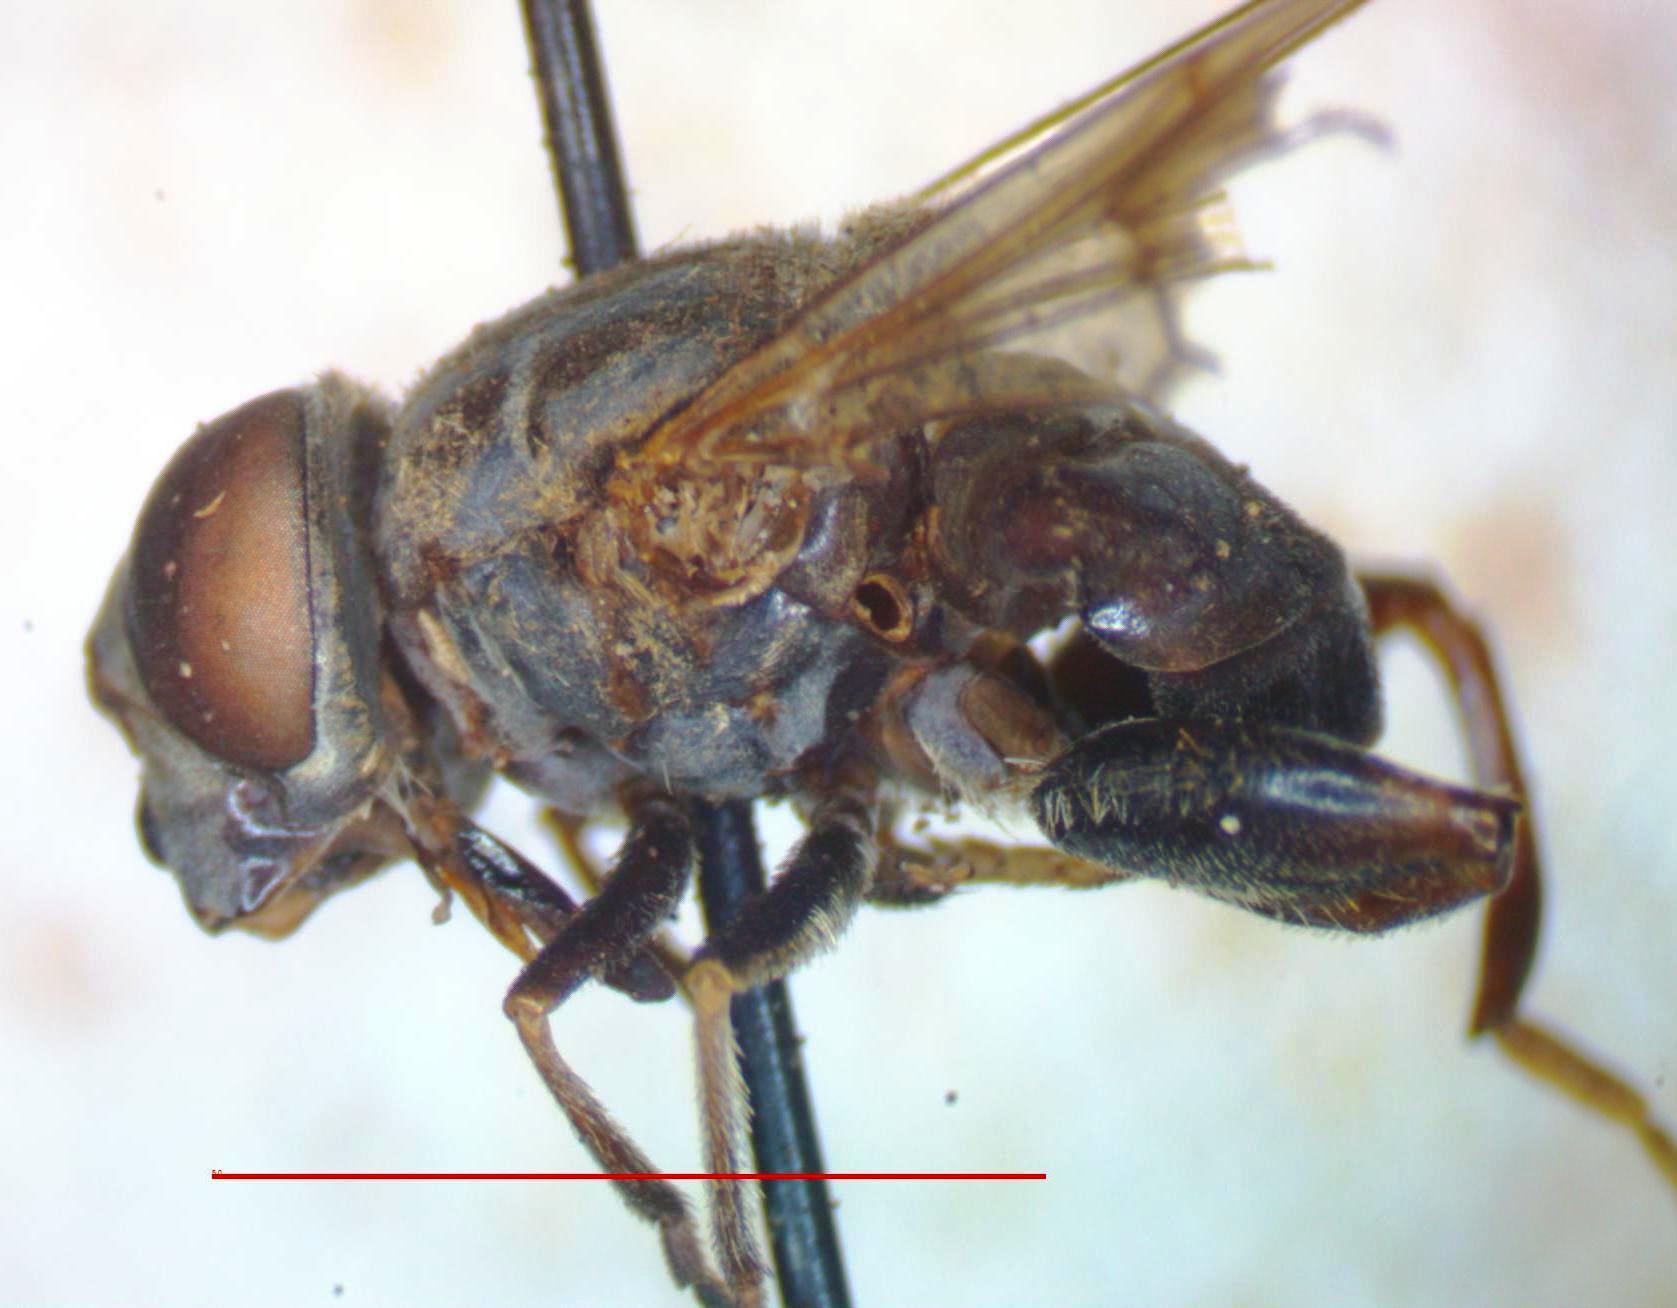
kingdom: Animalia
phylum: Arthropoda
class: Insecta
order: Diptera
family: Syrphidae
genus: Palpada
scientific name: Palpada furcata
